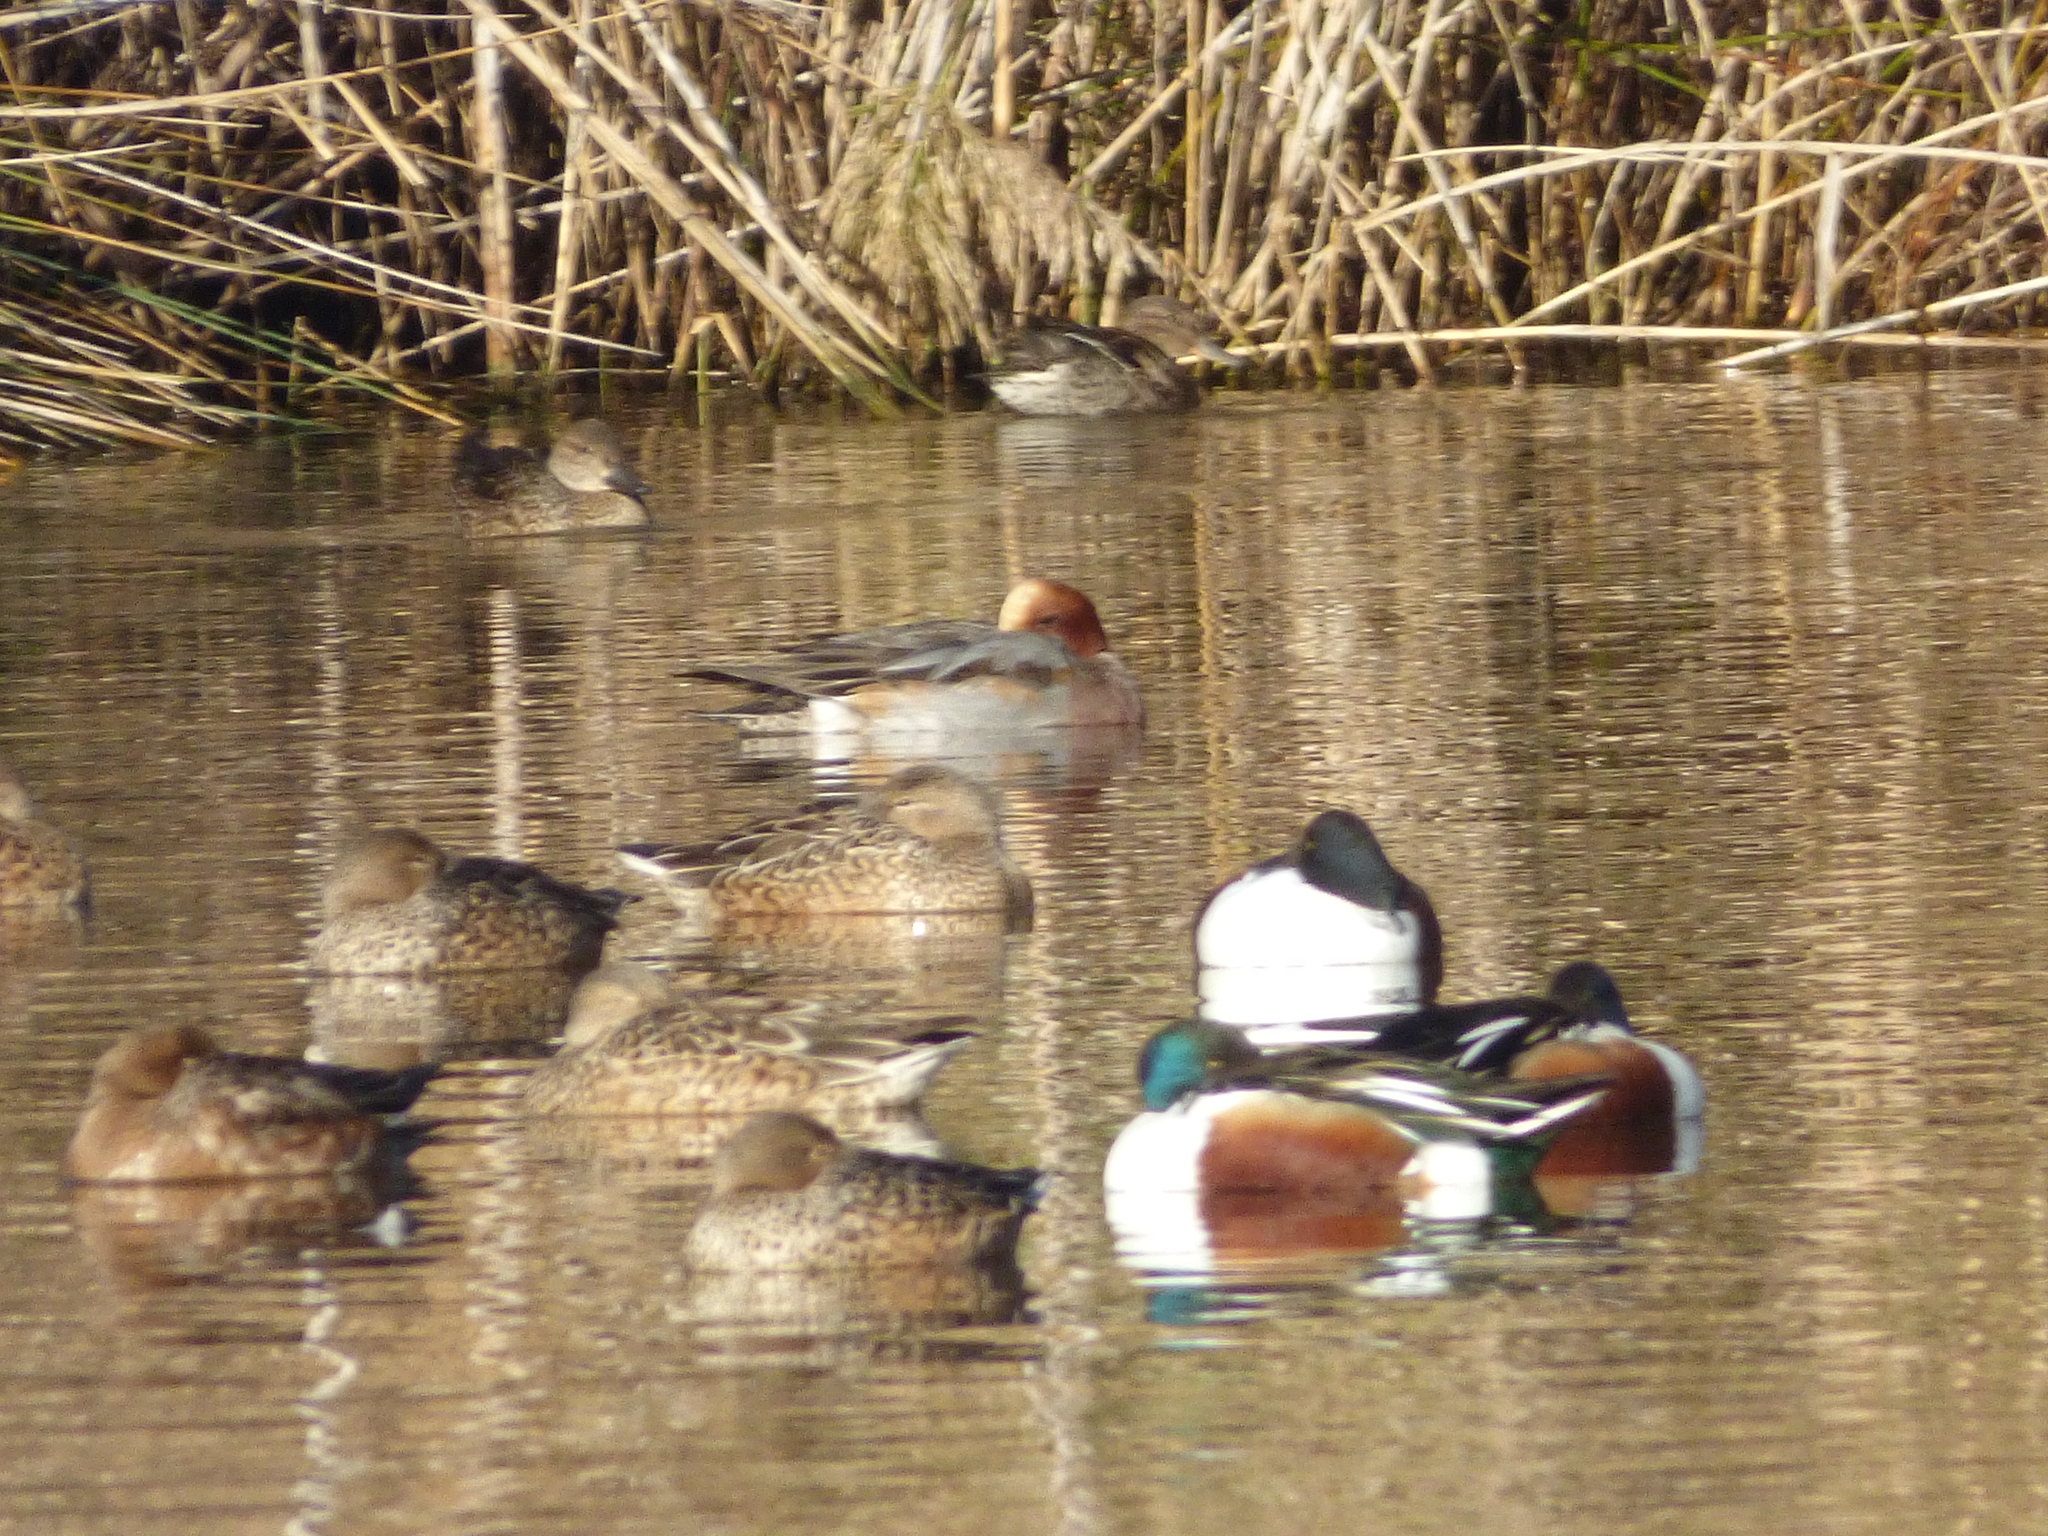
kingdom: Animalia
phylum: Chordata
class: Aves
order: Anseriformes
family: Anatidae
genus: Mareca
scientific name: Mareca penelope
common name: Eurasian wigeon
